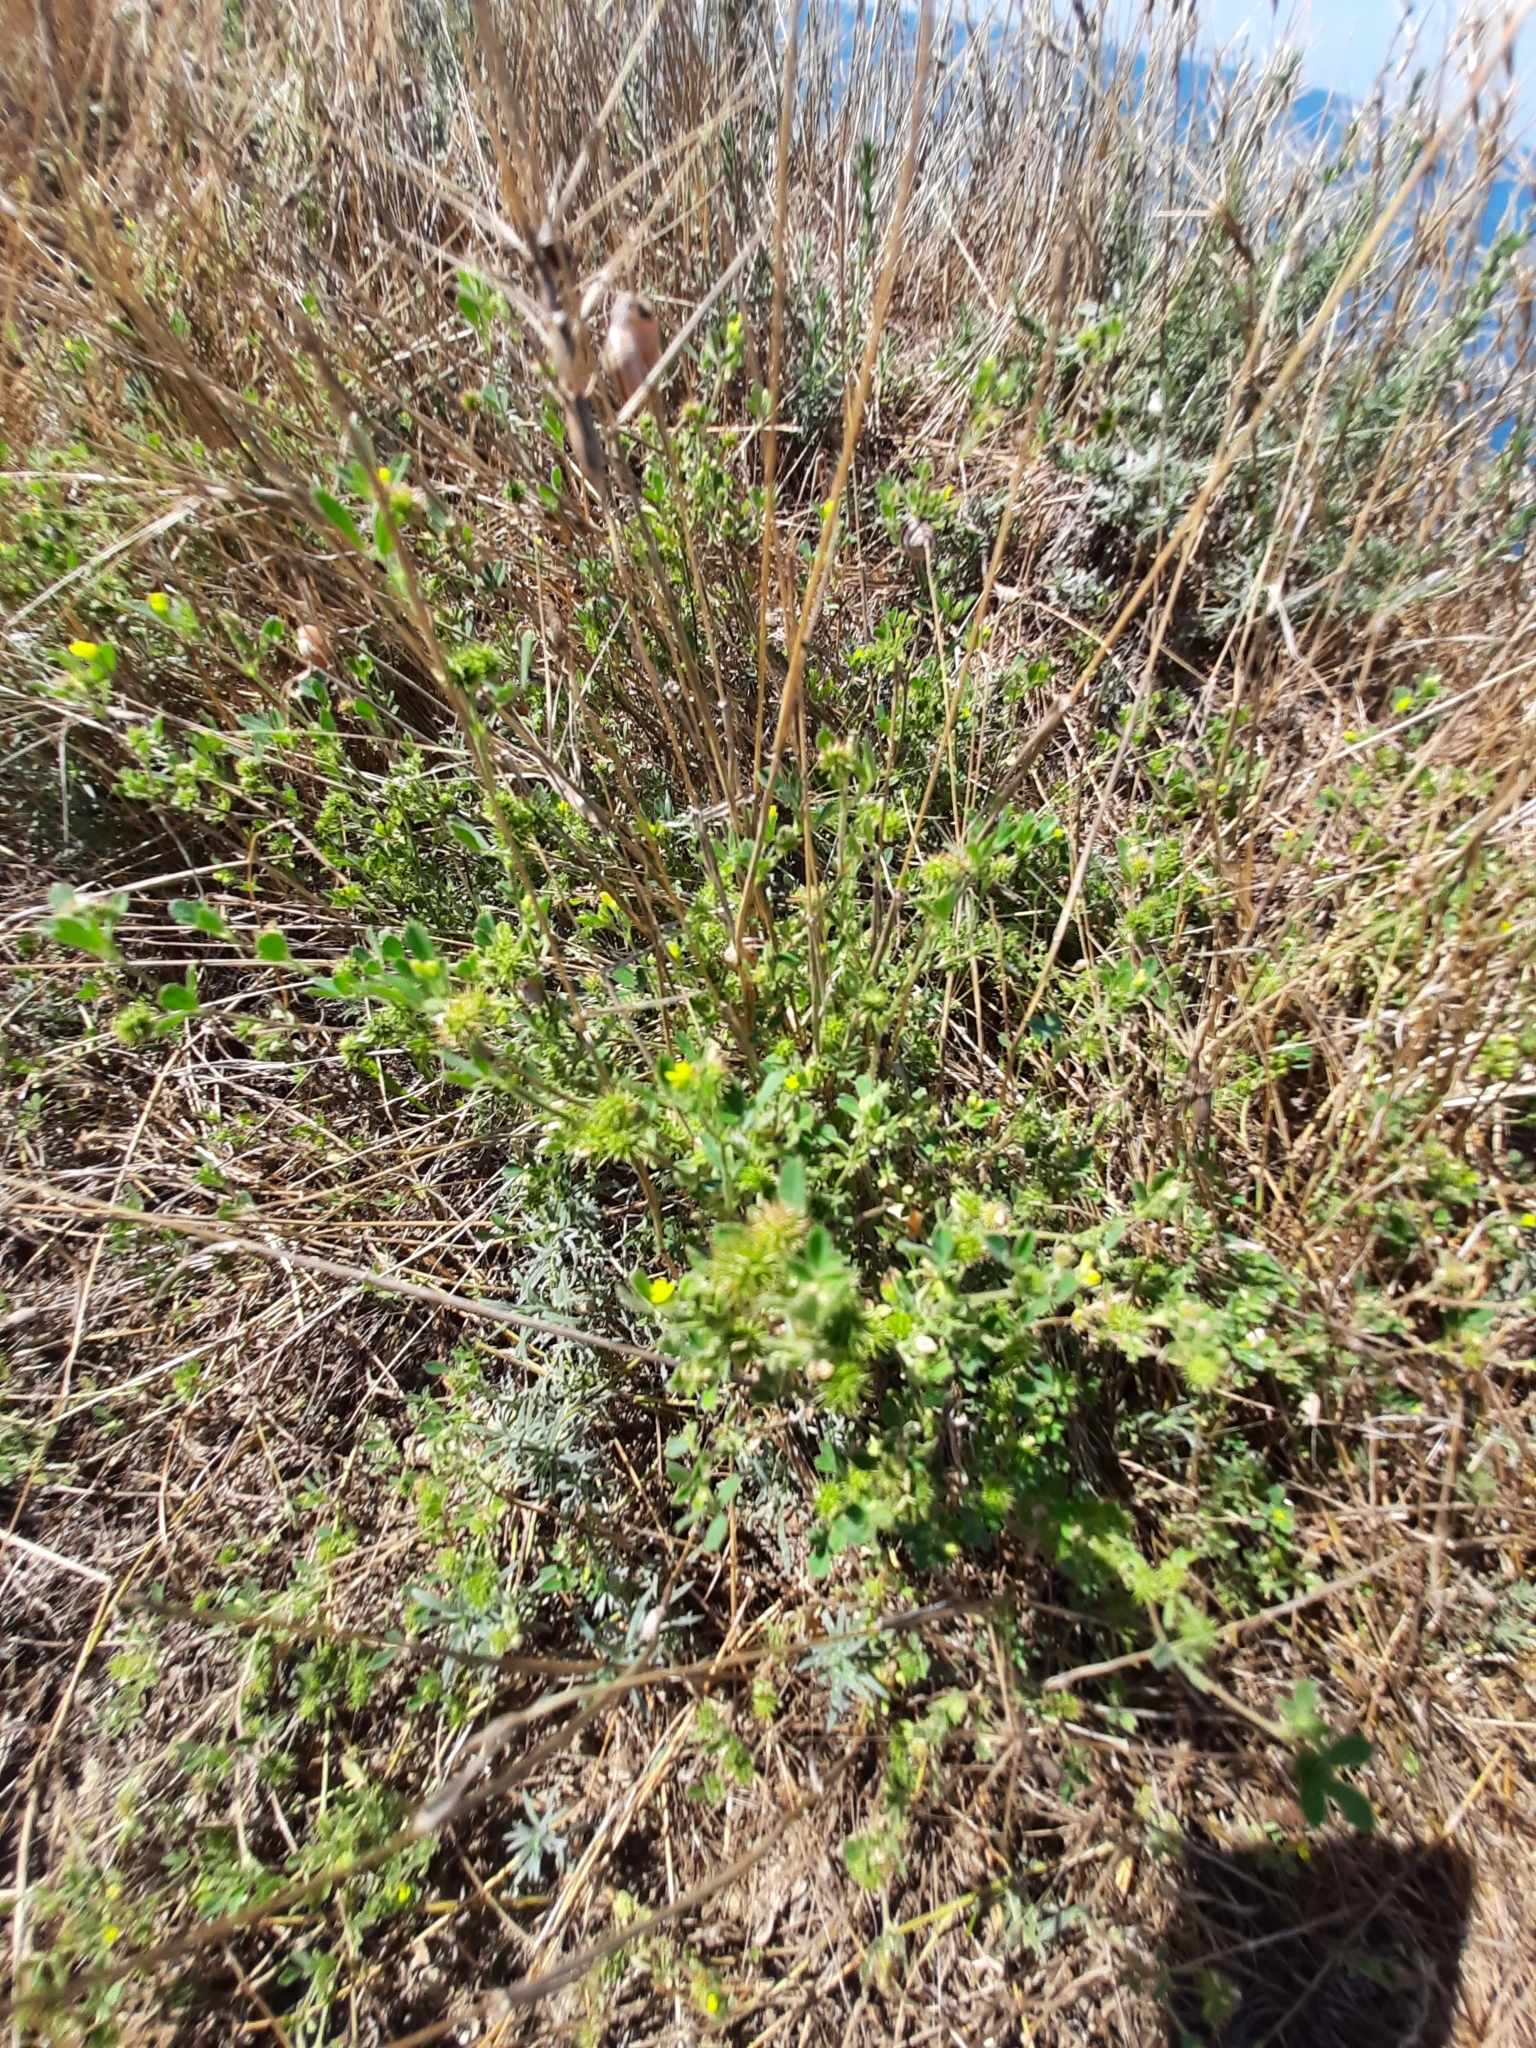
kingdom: Plantae
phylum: Tracheophyta
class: Magnoliopsida
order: Fabales
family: Fabaceae
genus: Medicago
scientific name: Medicago minima
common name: Little bur-clover
